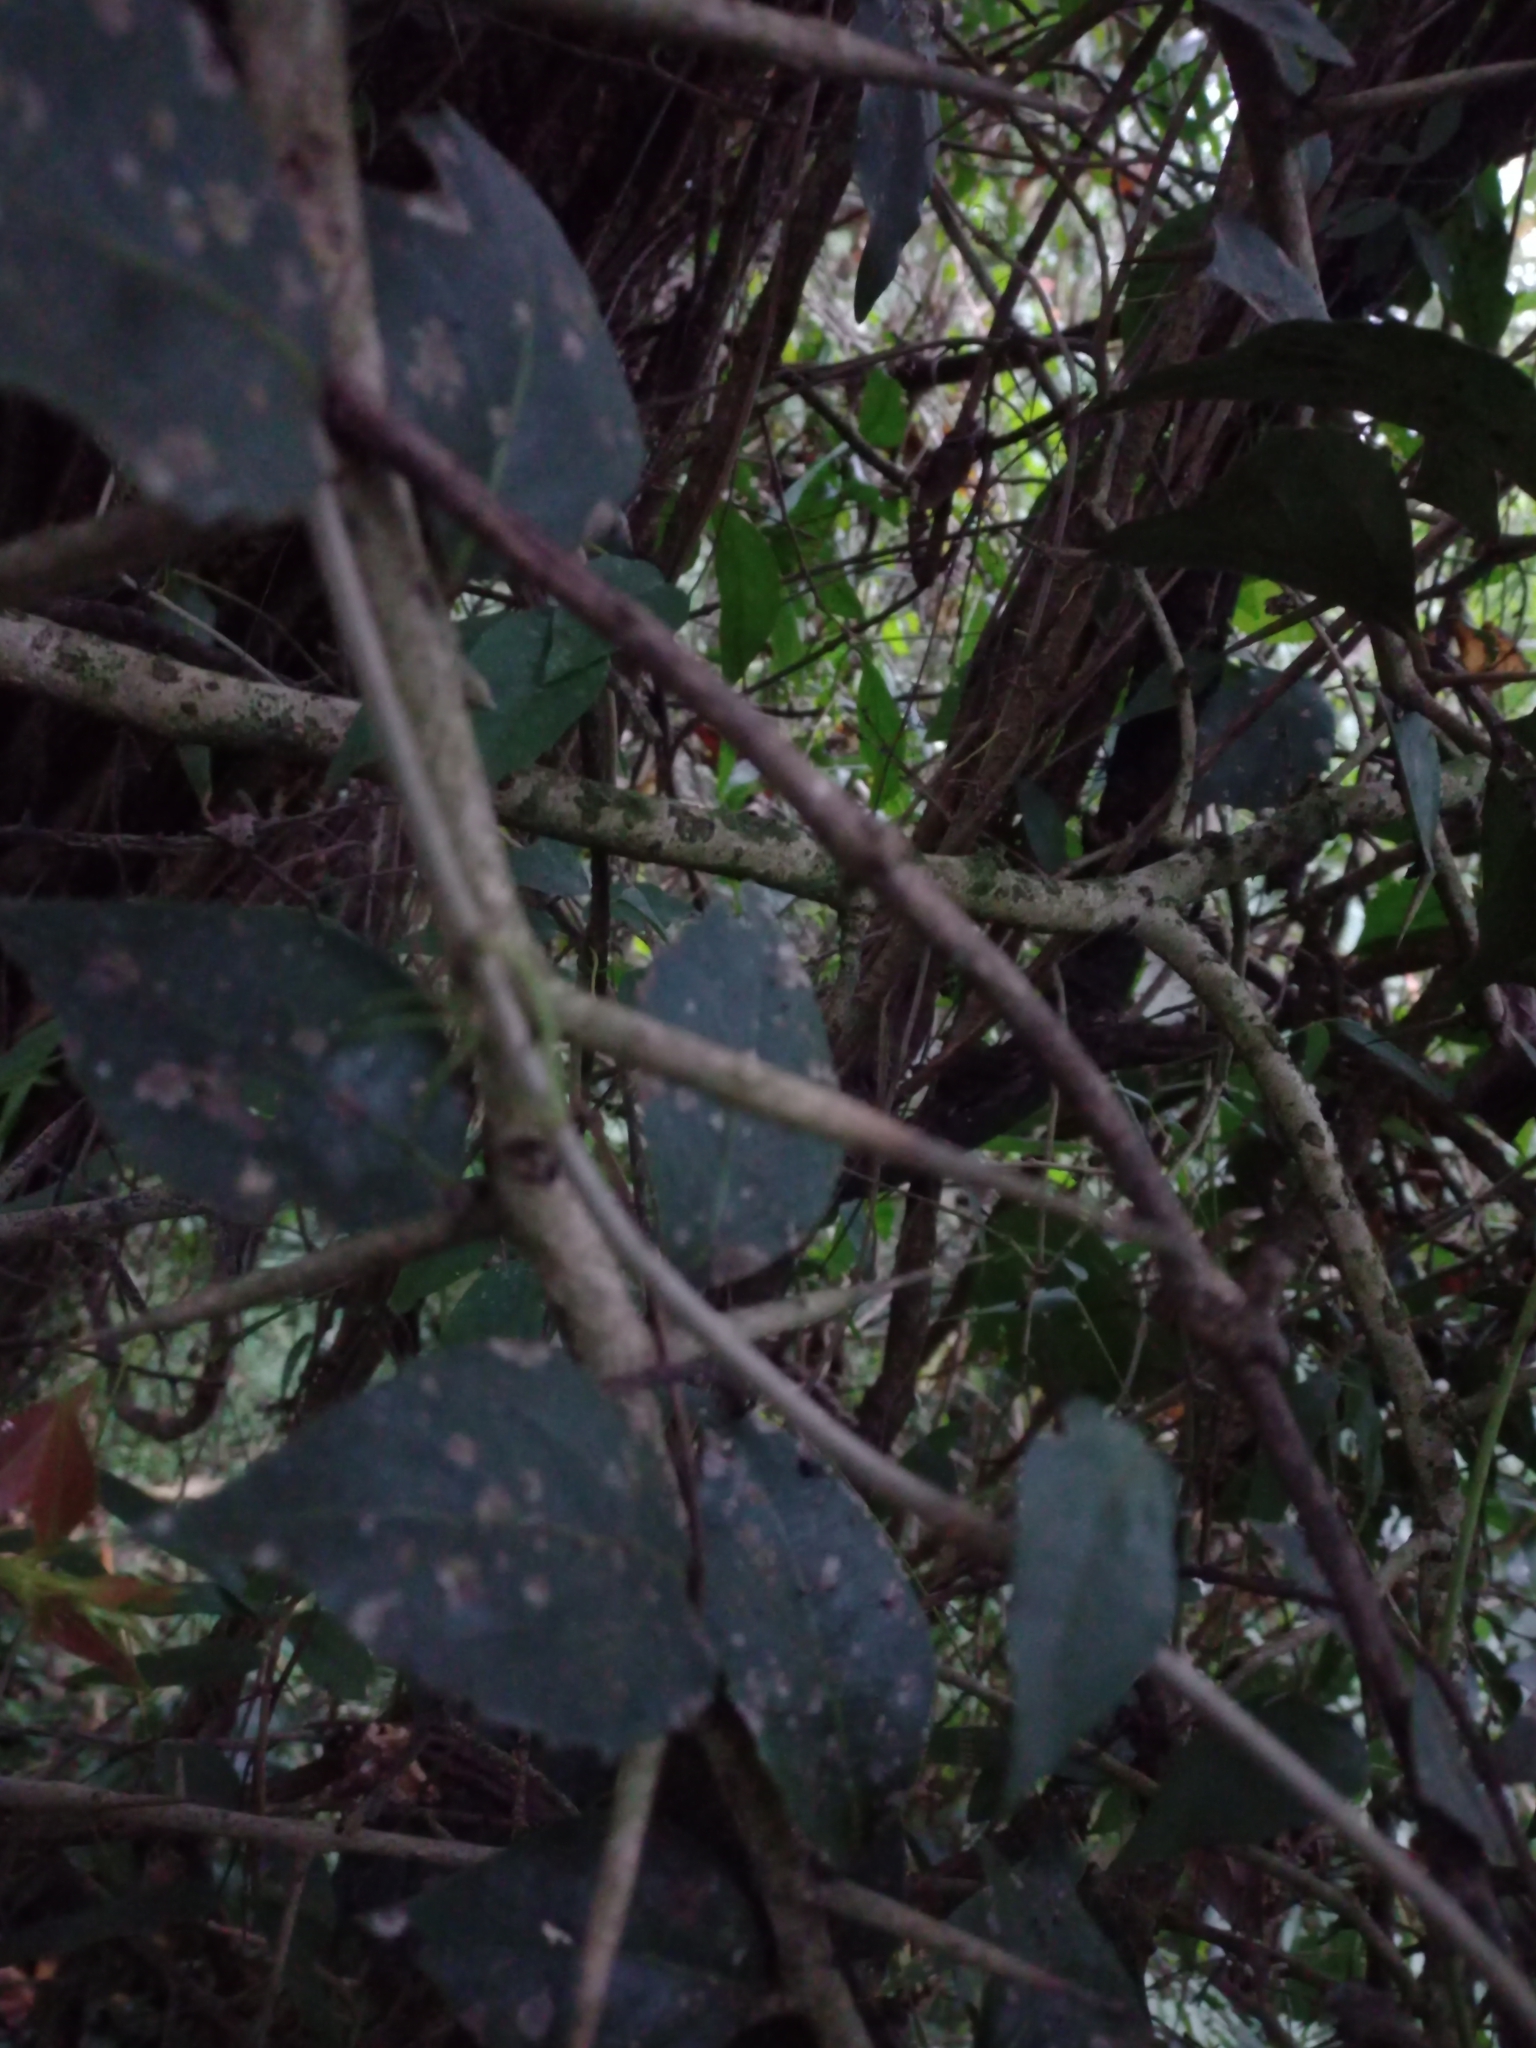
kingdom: Plantae
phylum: Tracheophyta
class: Magnoliopsida
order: Malpighiales
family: Salicaceae
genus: Scolopia
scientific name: Scolopia zeyheri
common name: Thorn pear
